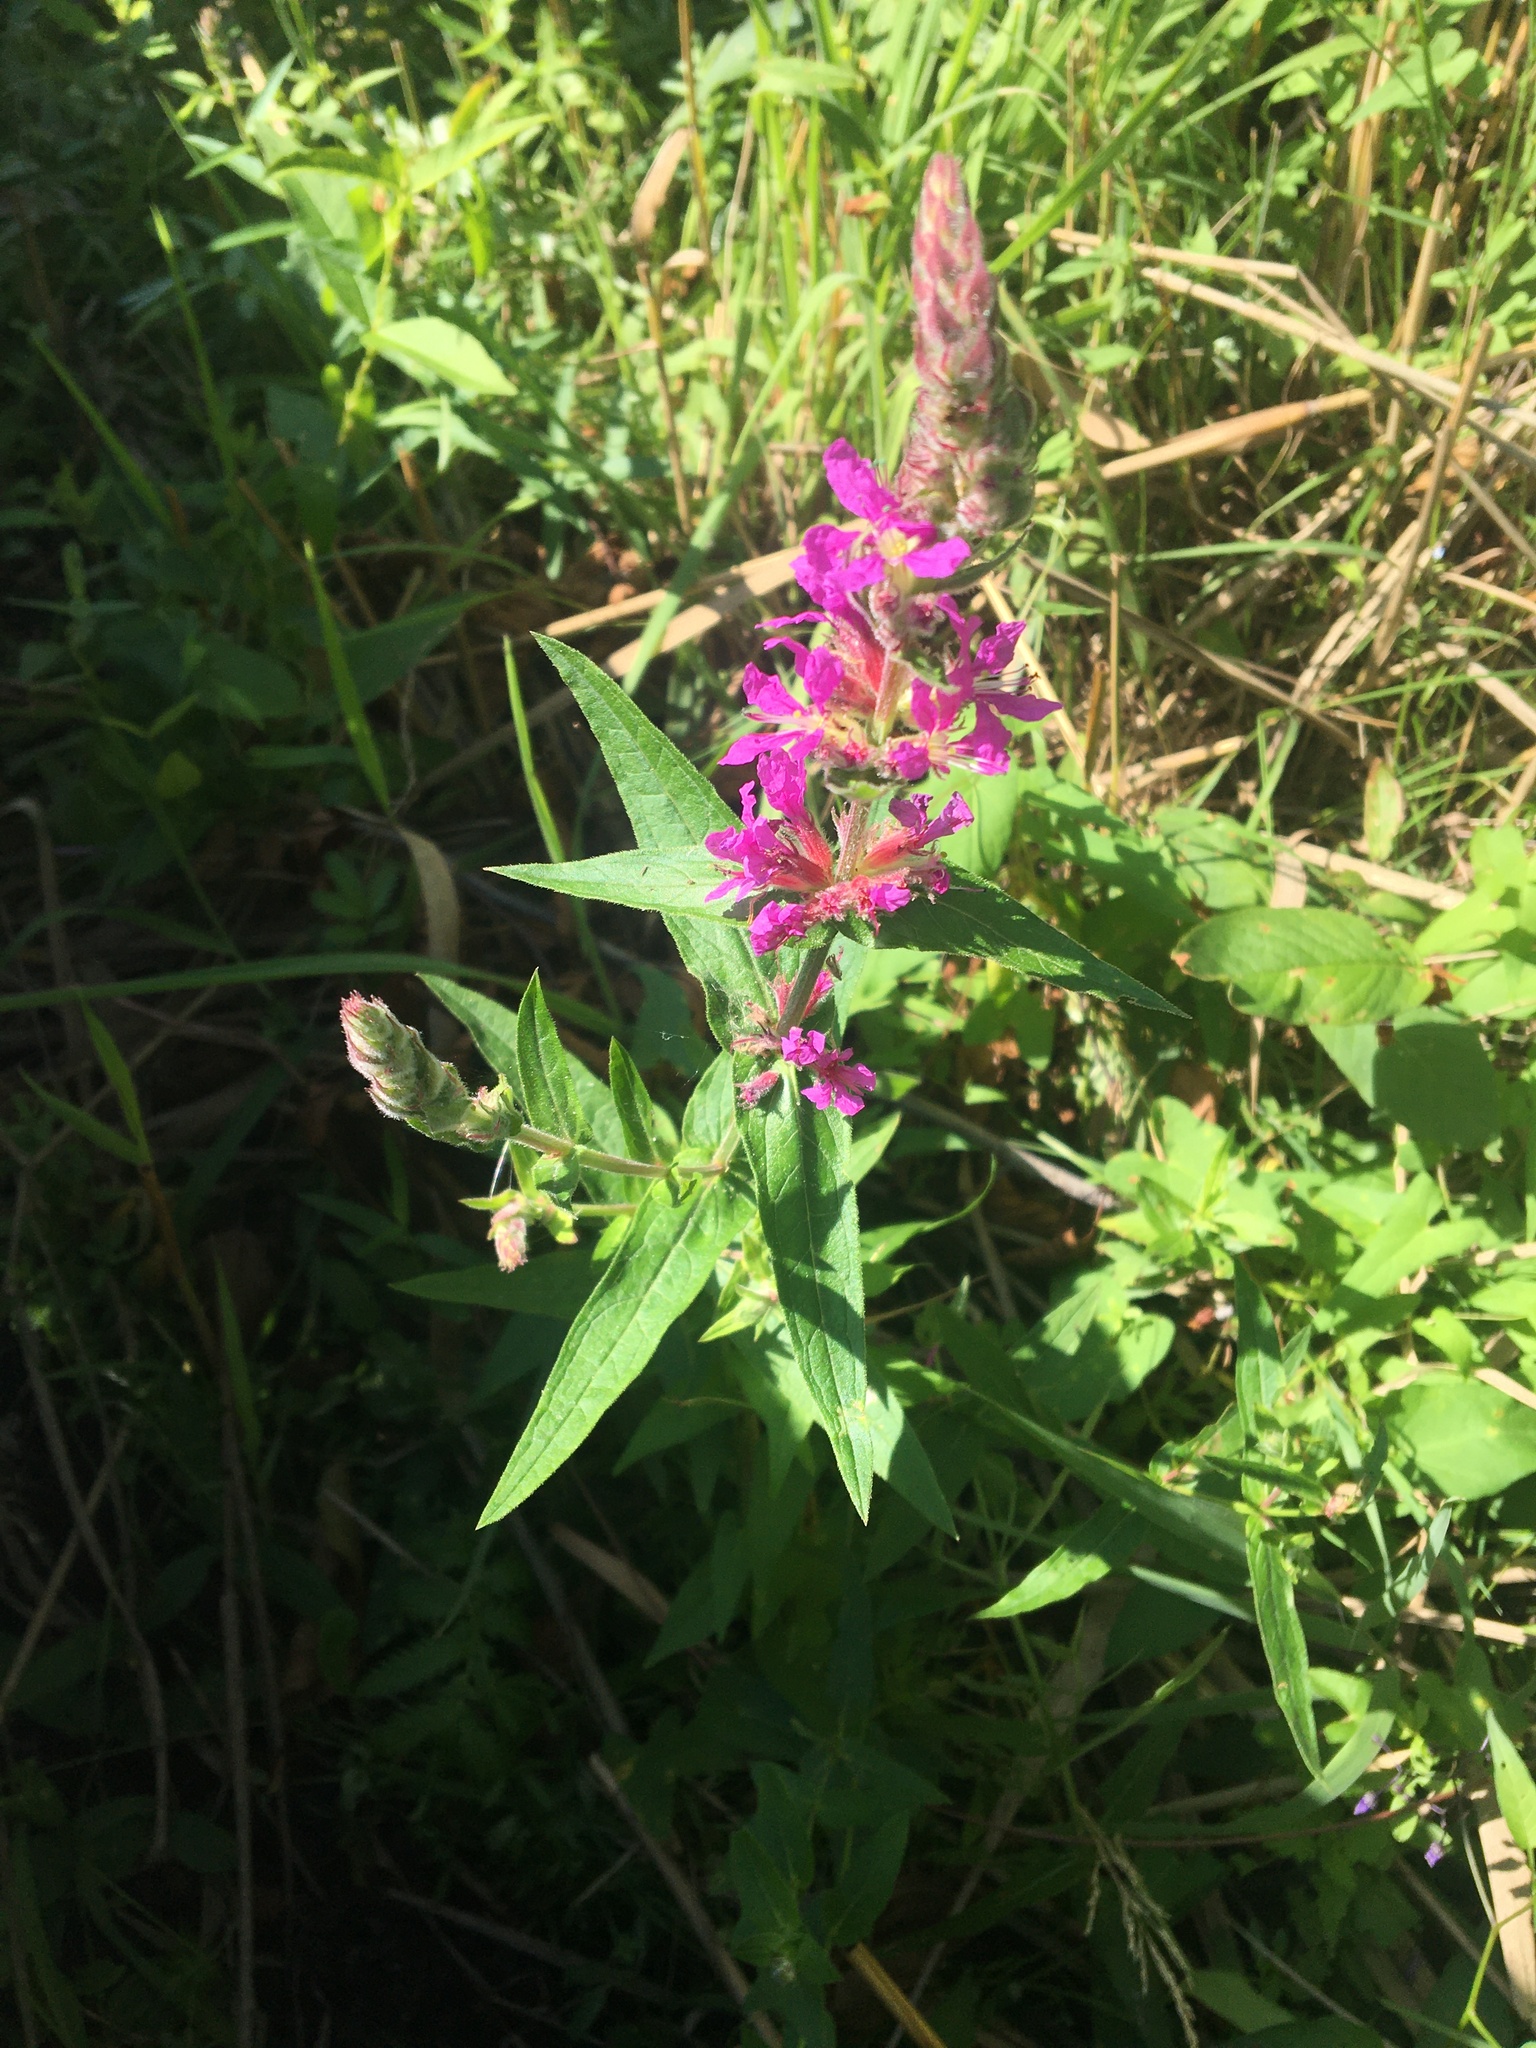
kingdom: Plantae
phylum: Tracheophyta
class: Magnoliopsida
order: Myrtales
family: Lythraceae
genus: Lythrum
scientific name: Lythrum salicaria
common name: Purple loosestrife
